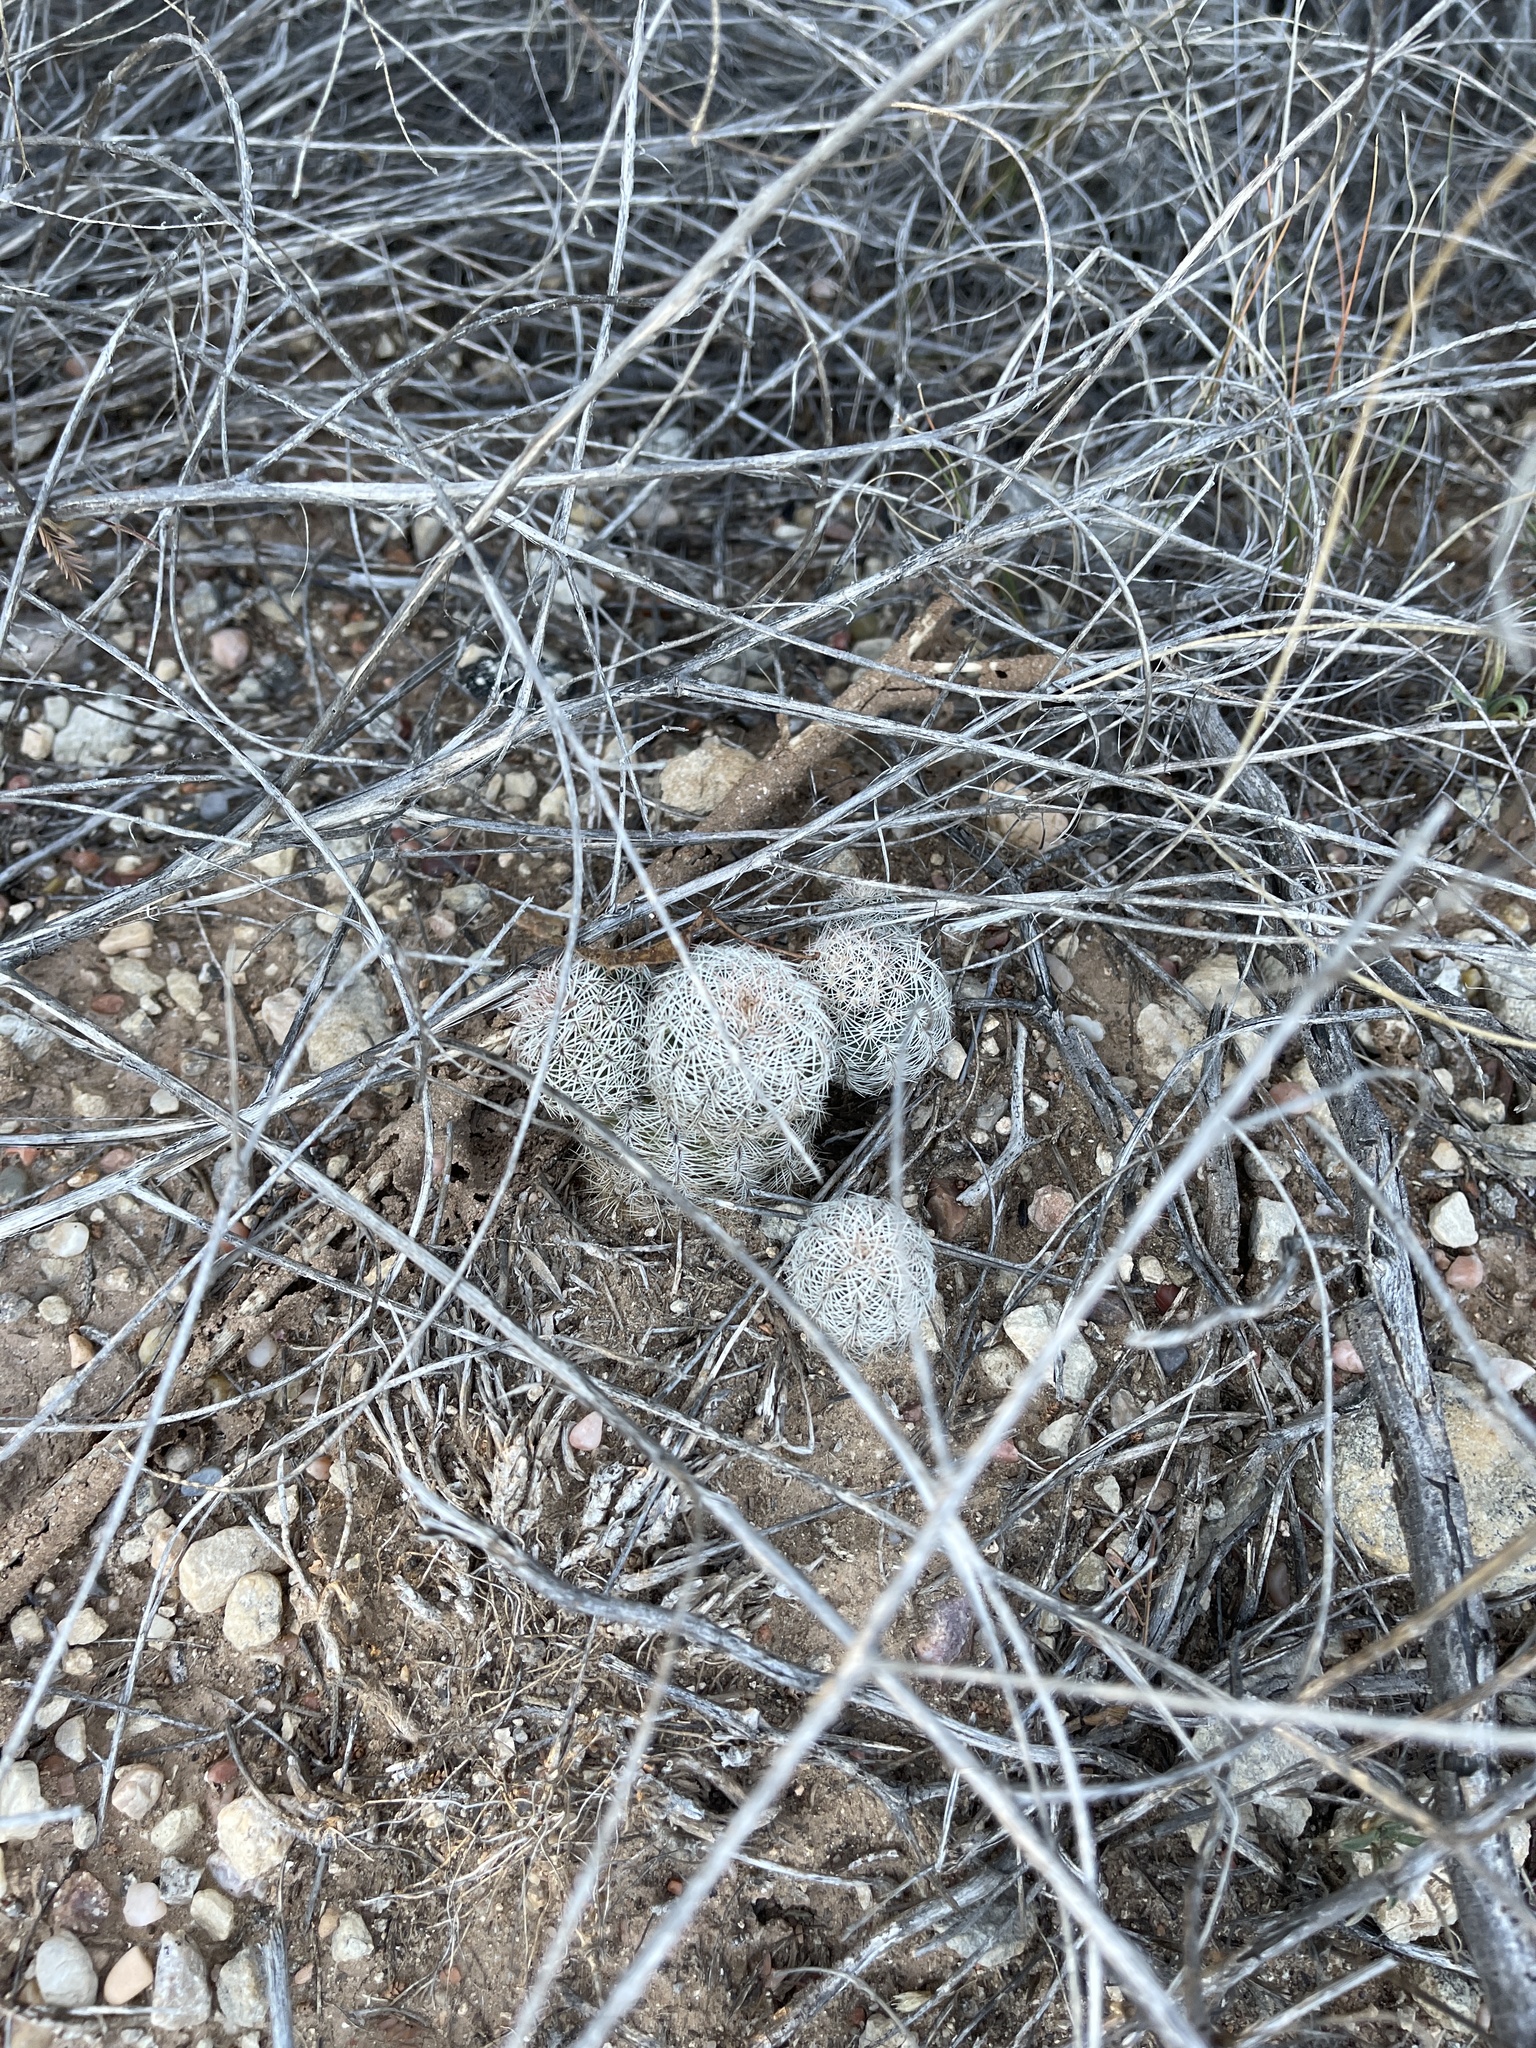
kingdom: Plantae
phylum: Tracheophyta
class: Magnoliopsida
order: Caryophyllales
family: Cactaceae
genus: Echinocereus
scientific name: Echinocereus reichenbachii
